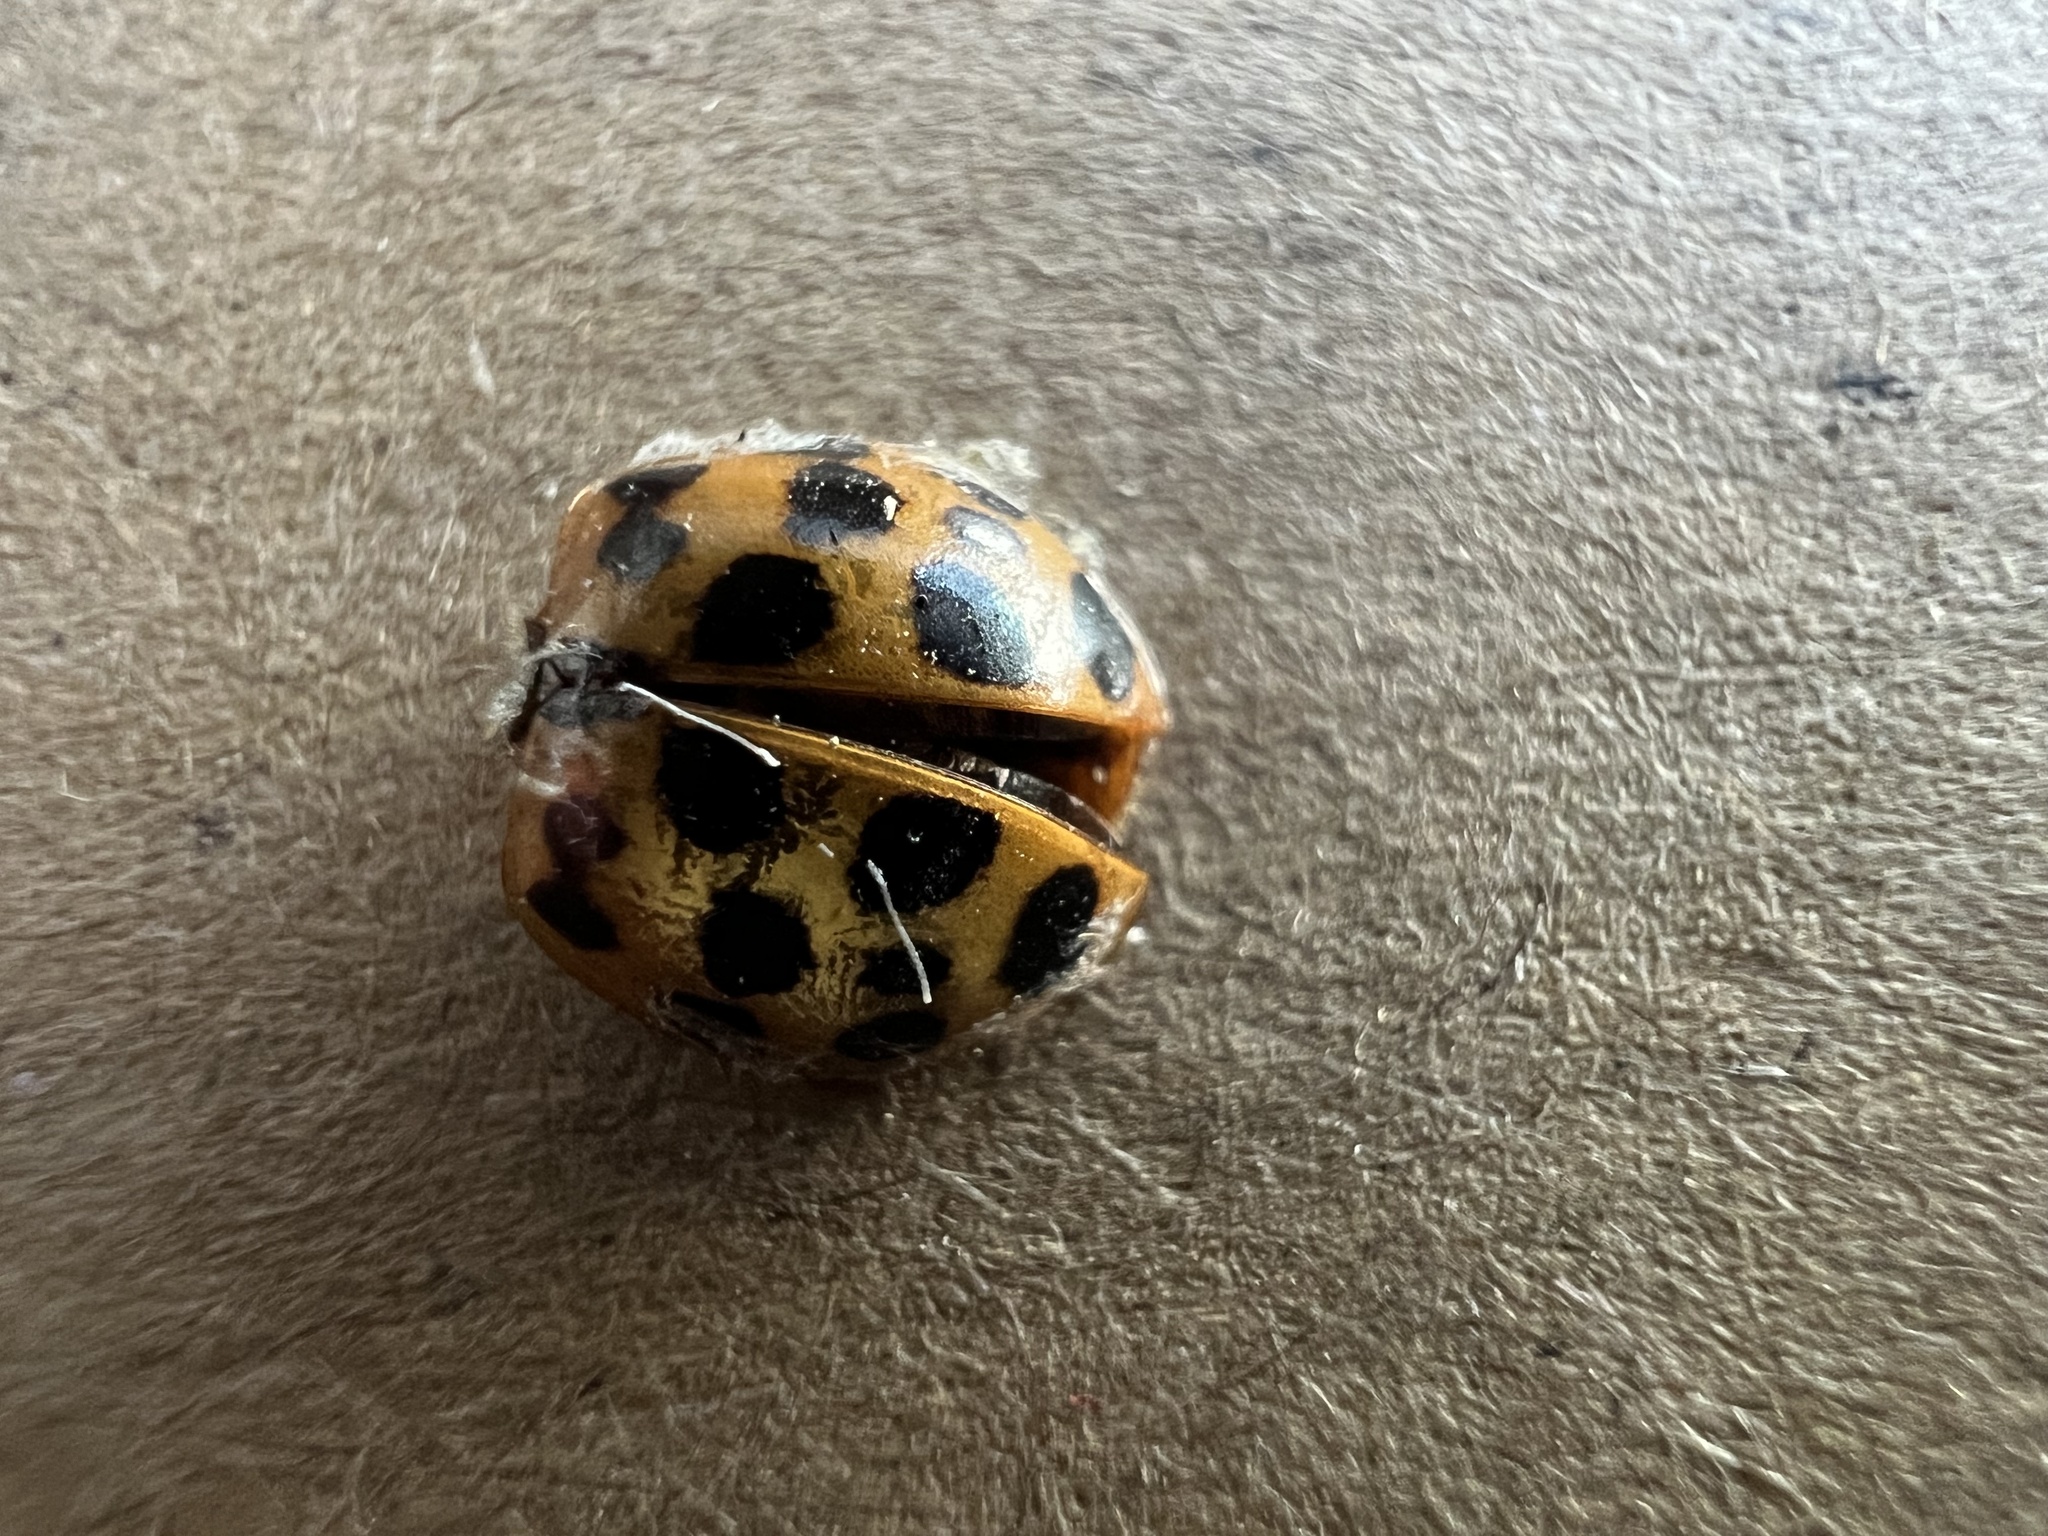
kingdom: Animalia
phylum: Arthropoda
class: Insecta
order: Coleoptera
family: Coccinellidae
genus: Harmonia
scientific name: Harmonia axyridis
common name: Harlequin ladybird
